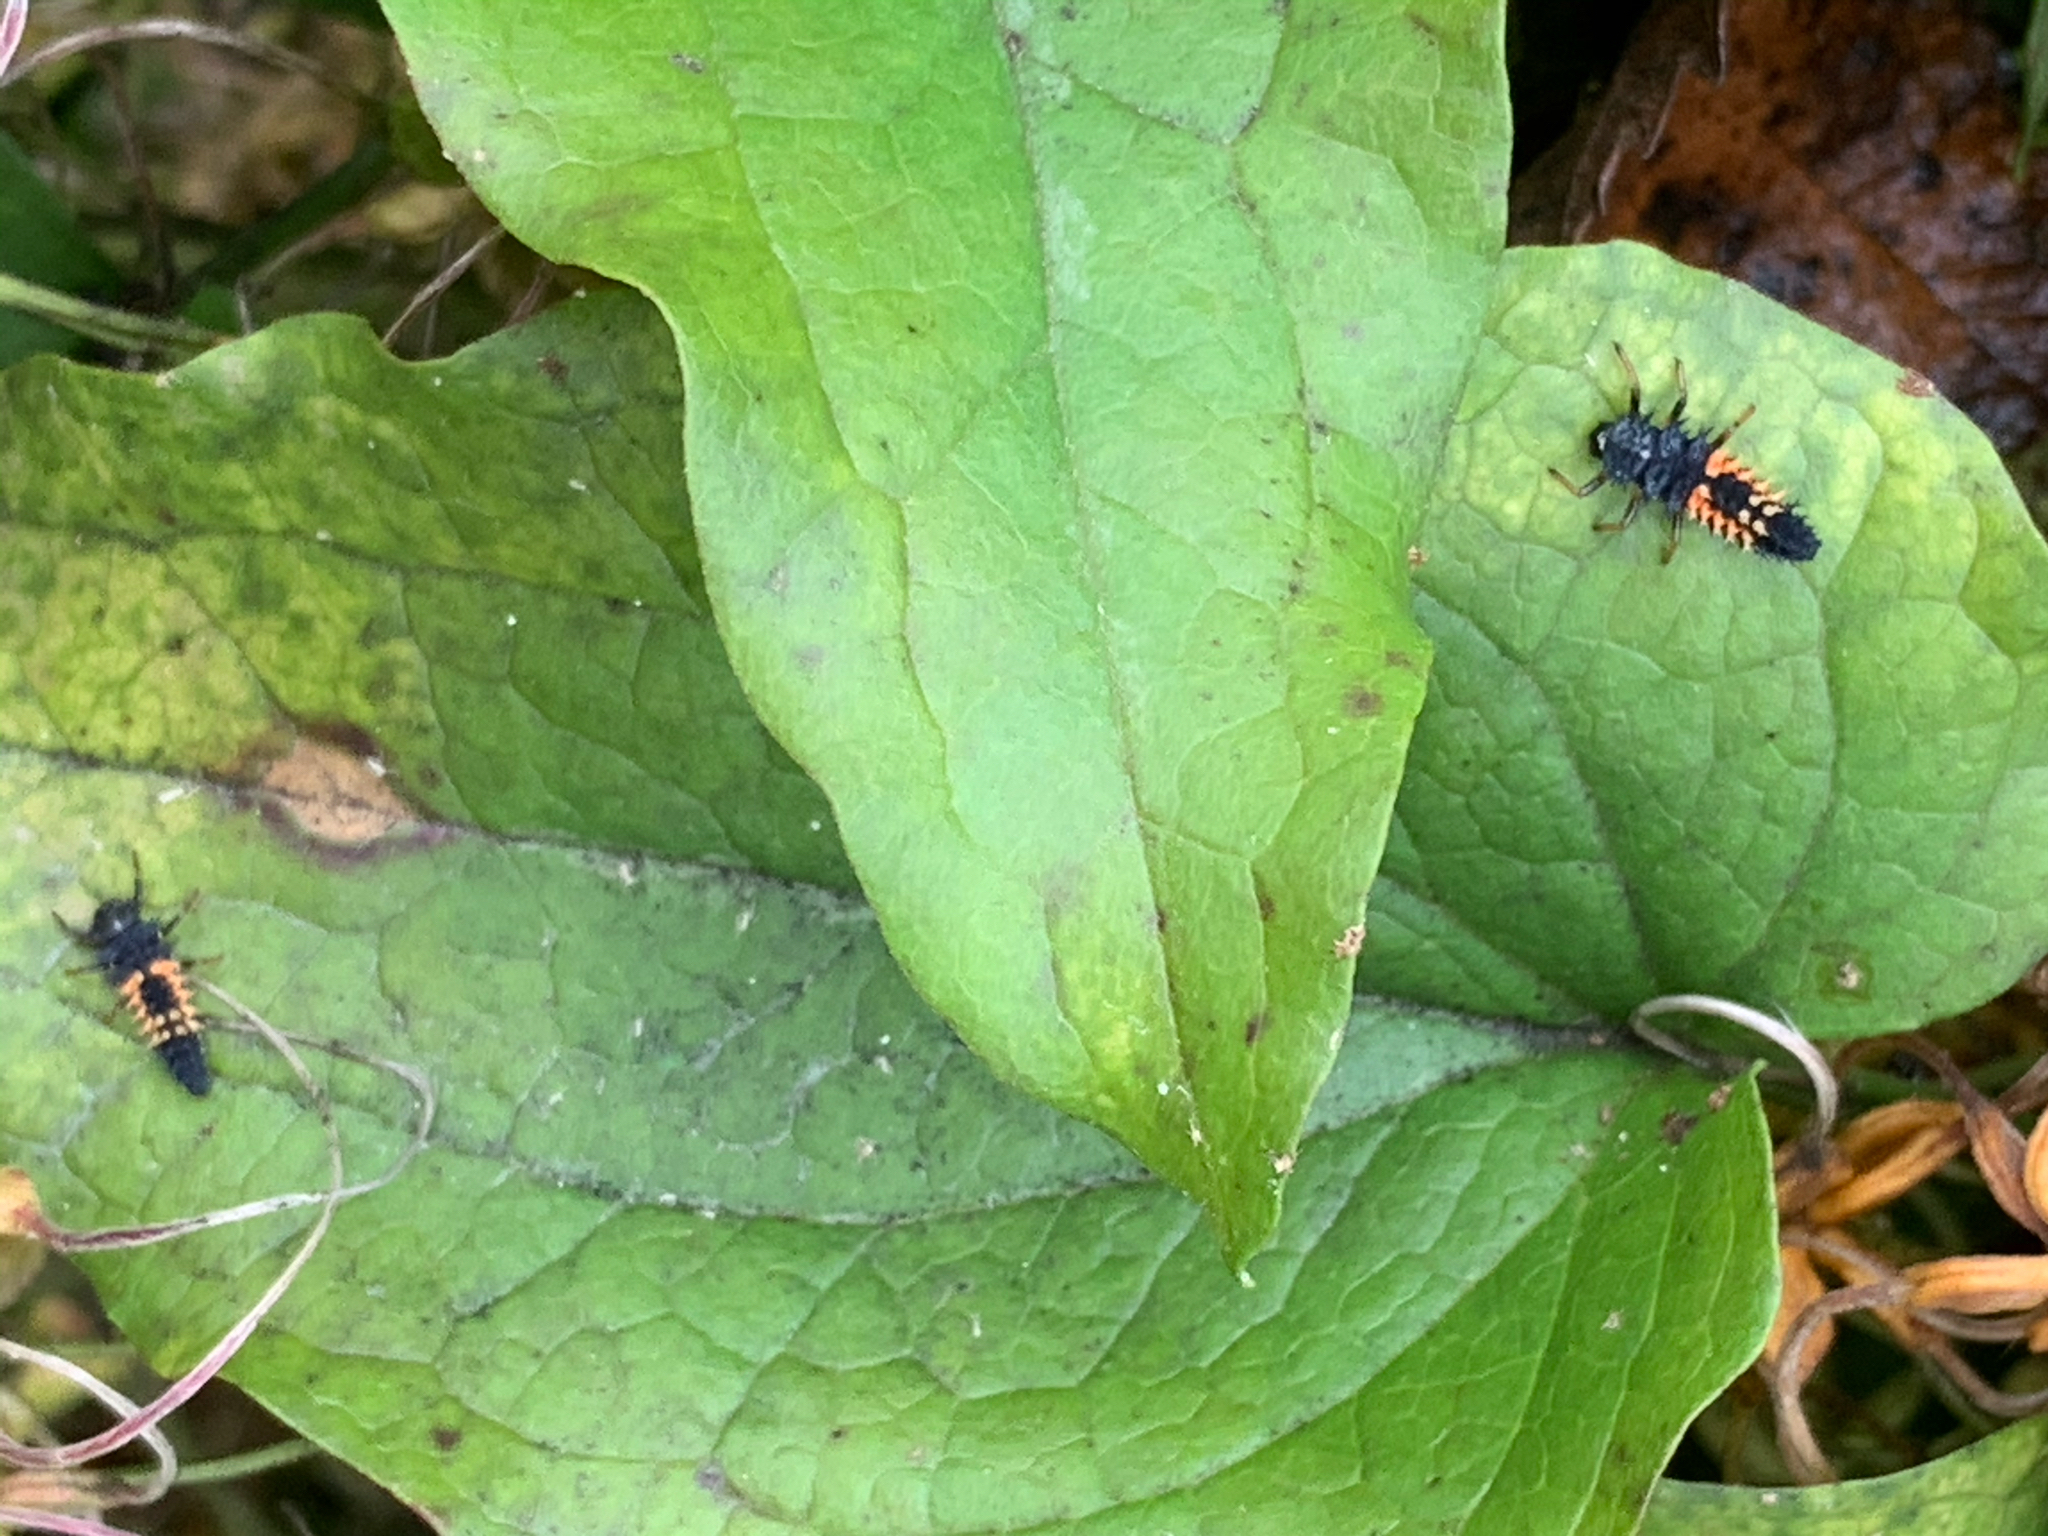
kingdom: Animalia
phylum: Arthropoda
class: Insecta
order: Coleoptera
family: Coccinellidae
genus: Harmonia
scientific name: Harmonia axyridis
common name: Harlequin ladybird
